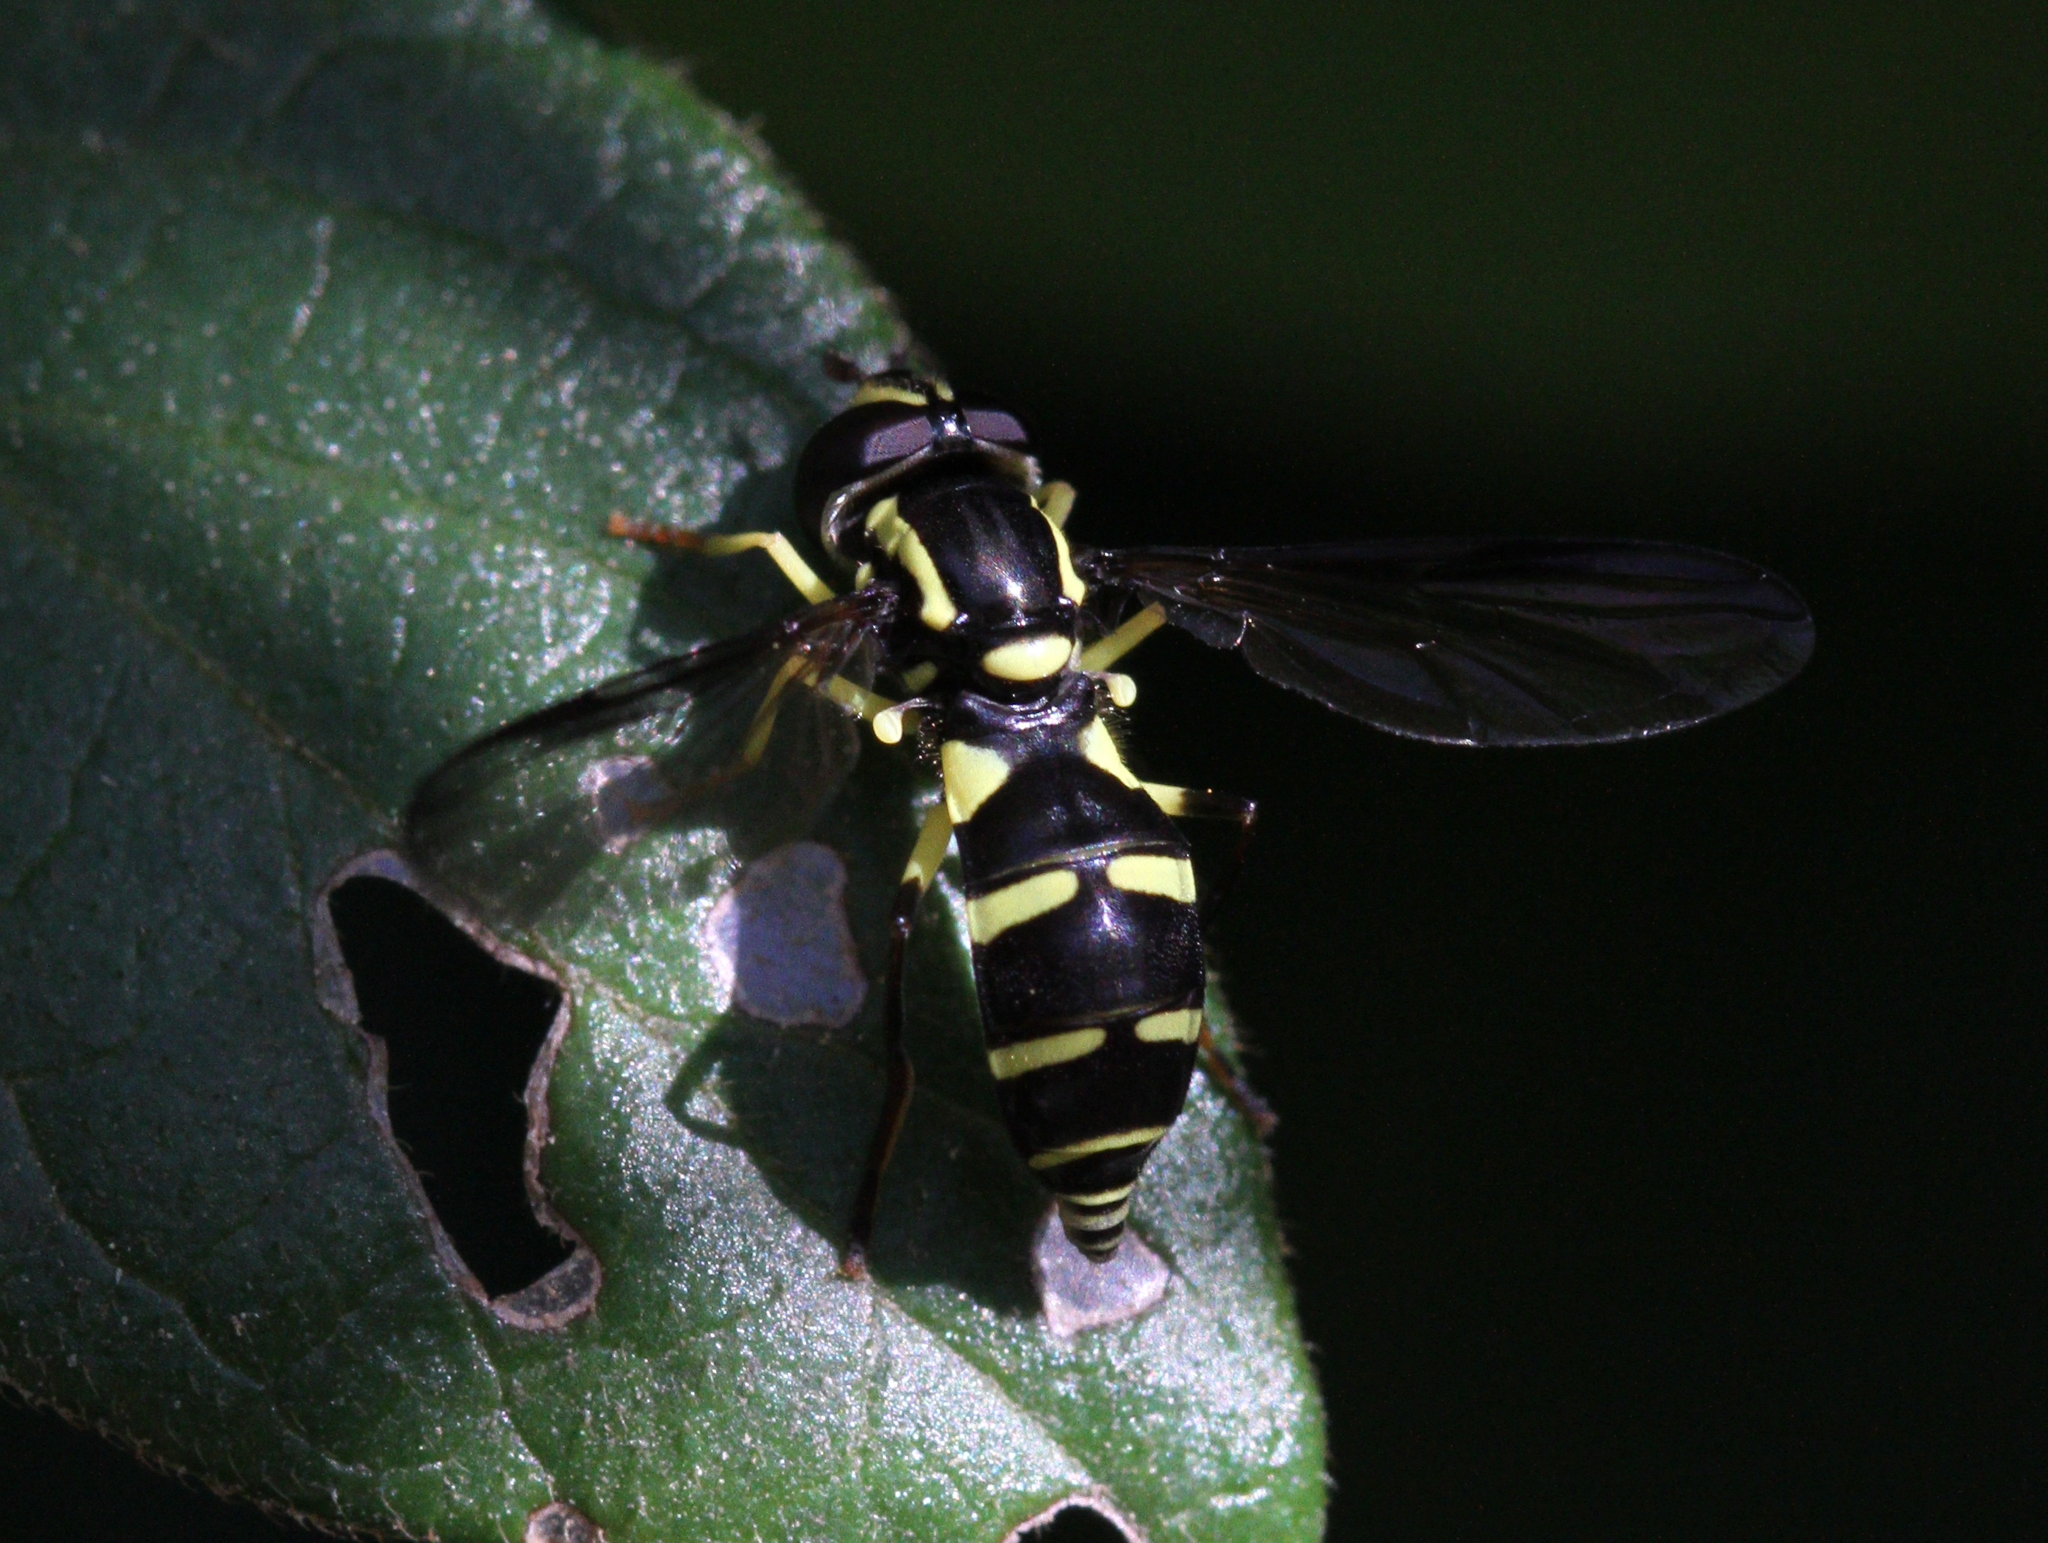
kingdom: Animalia
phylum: Arthropoda
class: Insecta
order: Diptera
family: Syrphidae
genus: Philhelius
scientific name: Philhelius dives
